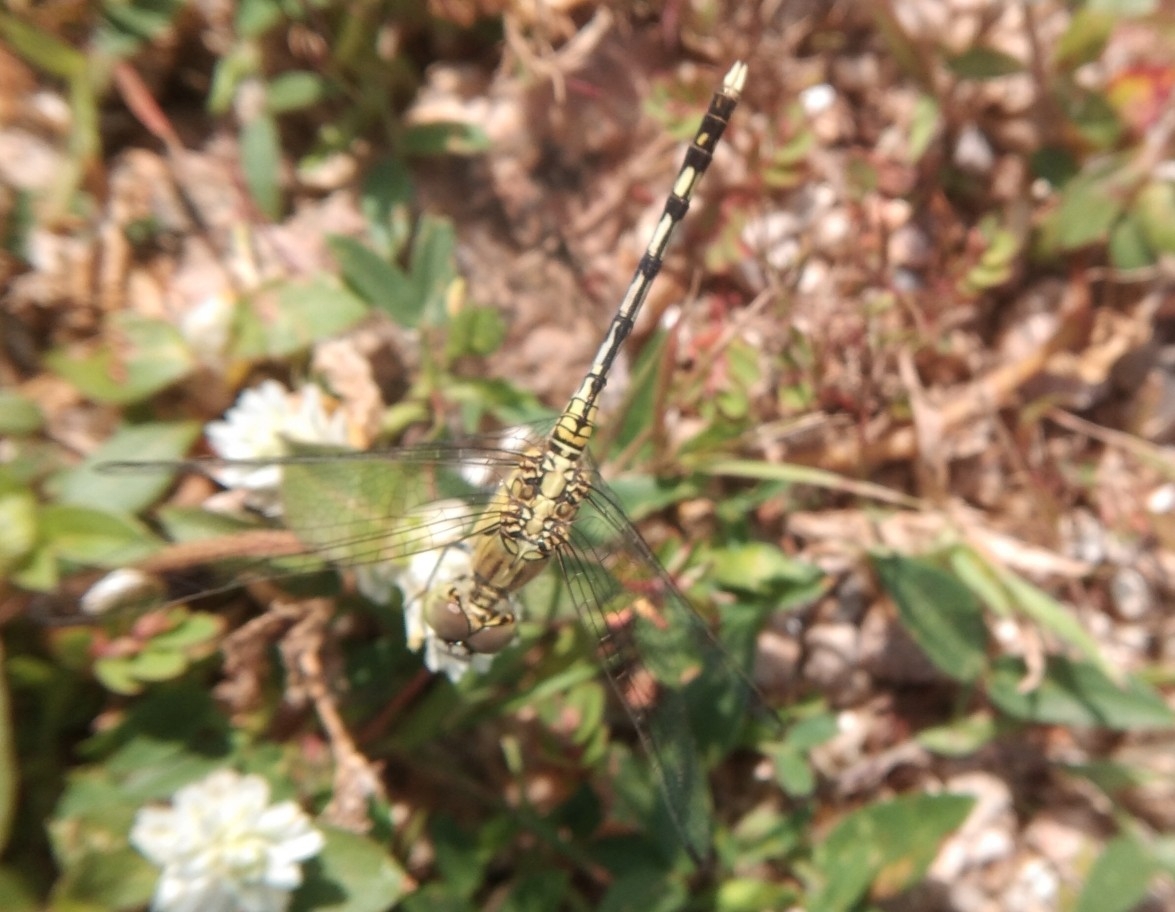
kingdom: Animalia
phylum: Arthropoda
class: Insecta
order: Odonata
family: Libellulidae
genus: Diplacodes
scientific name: Diplacodes trivialis
